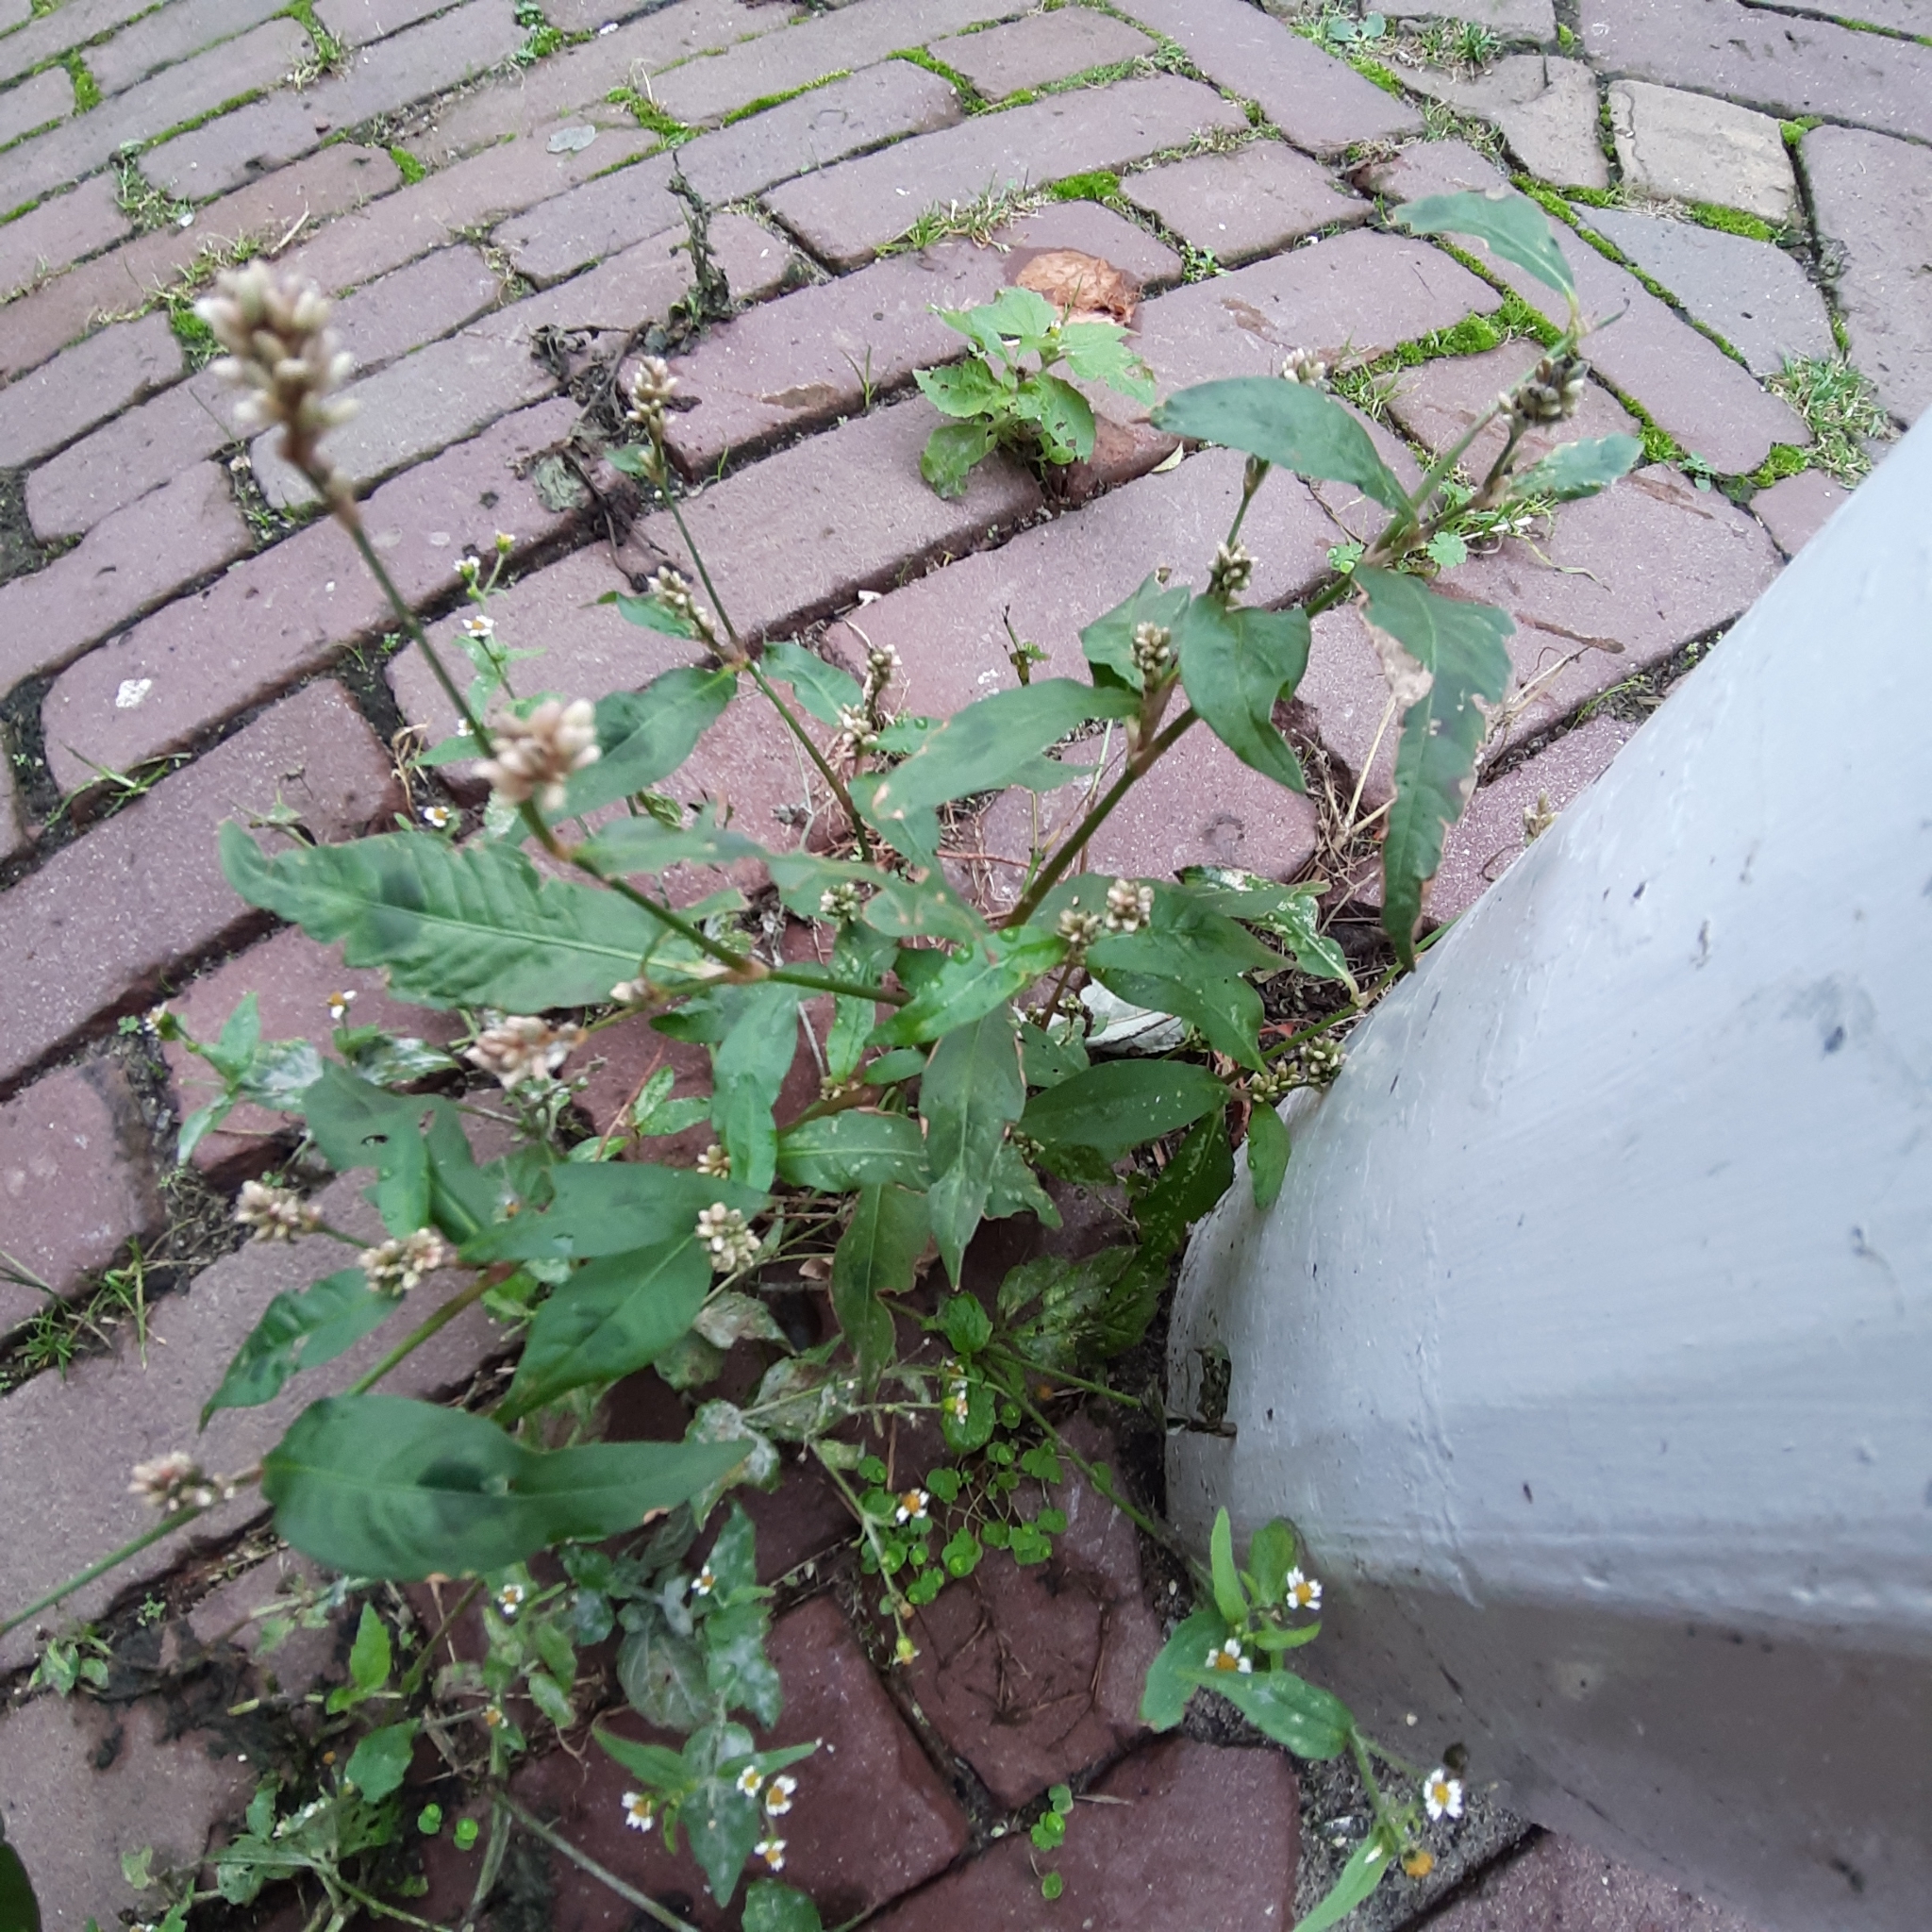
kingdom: Plantae
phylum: Tracheophyta
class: Magnoliopsida
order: Caryophyllales
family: Polygonaceae
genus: Persicaria
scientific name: Persicaria maculosa
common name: Redshank
